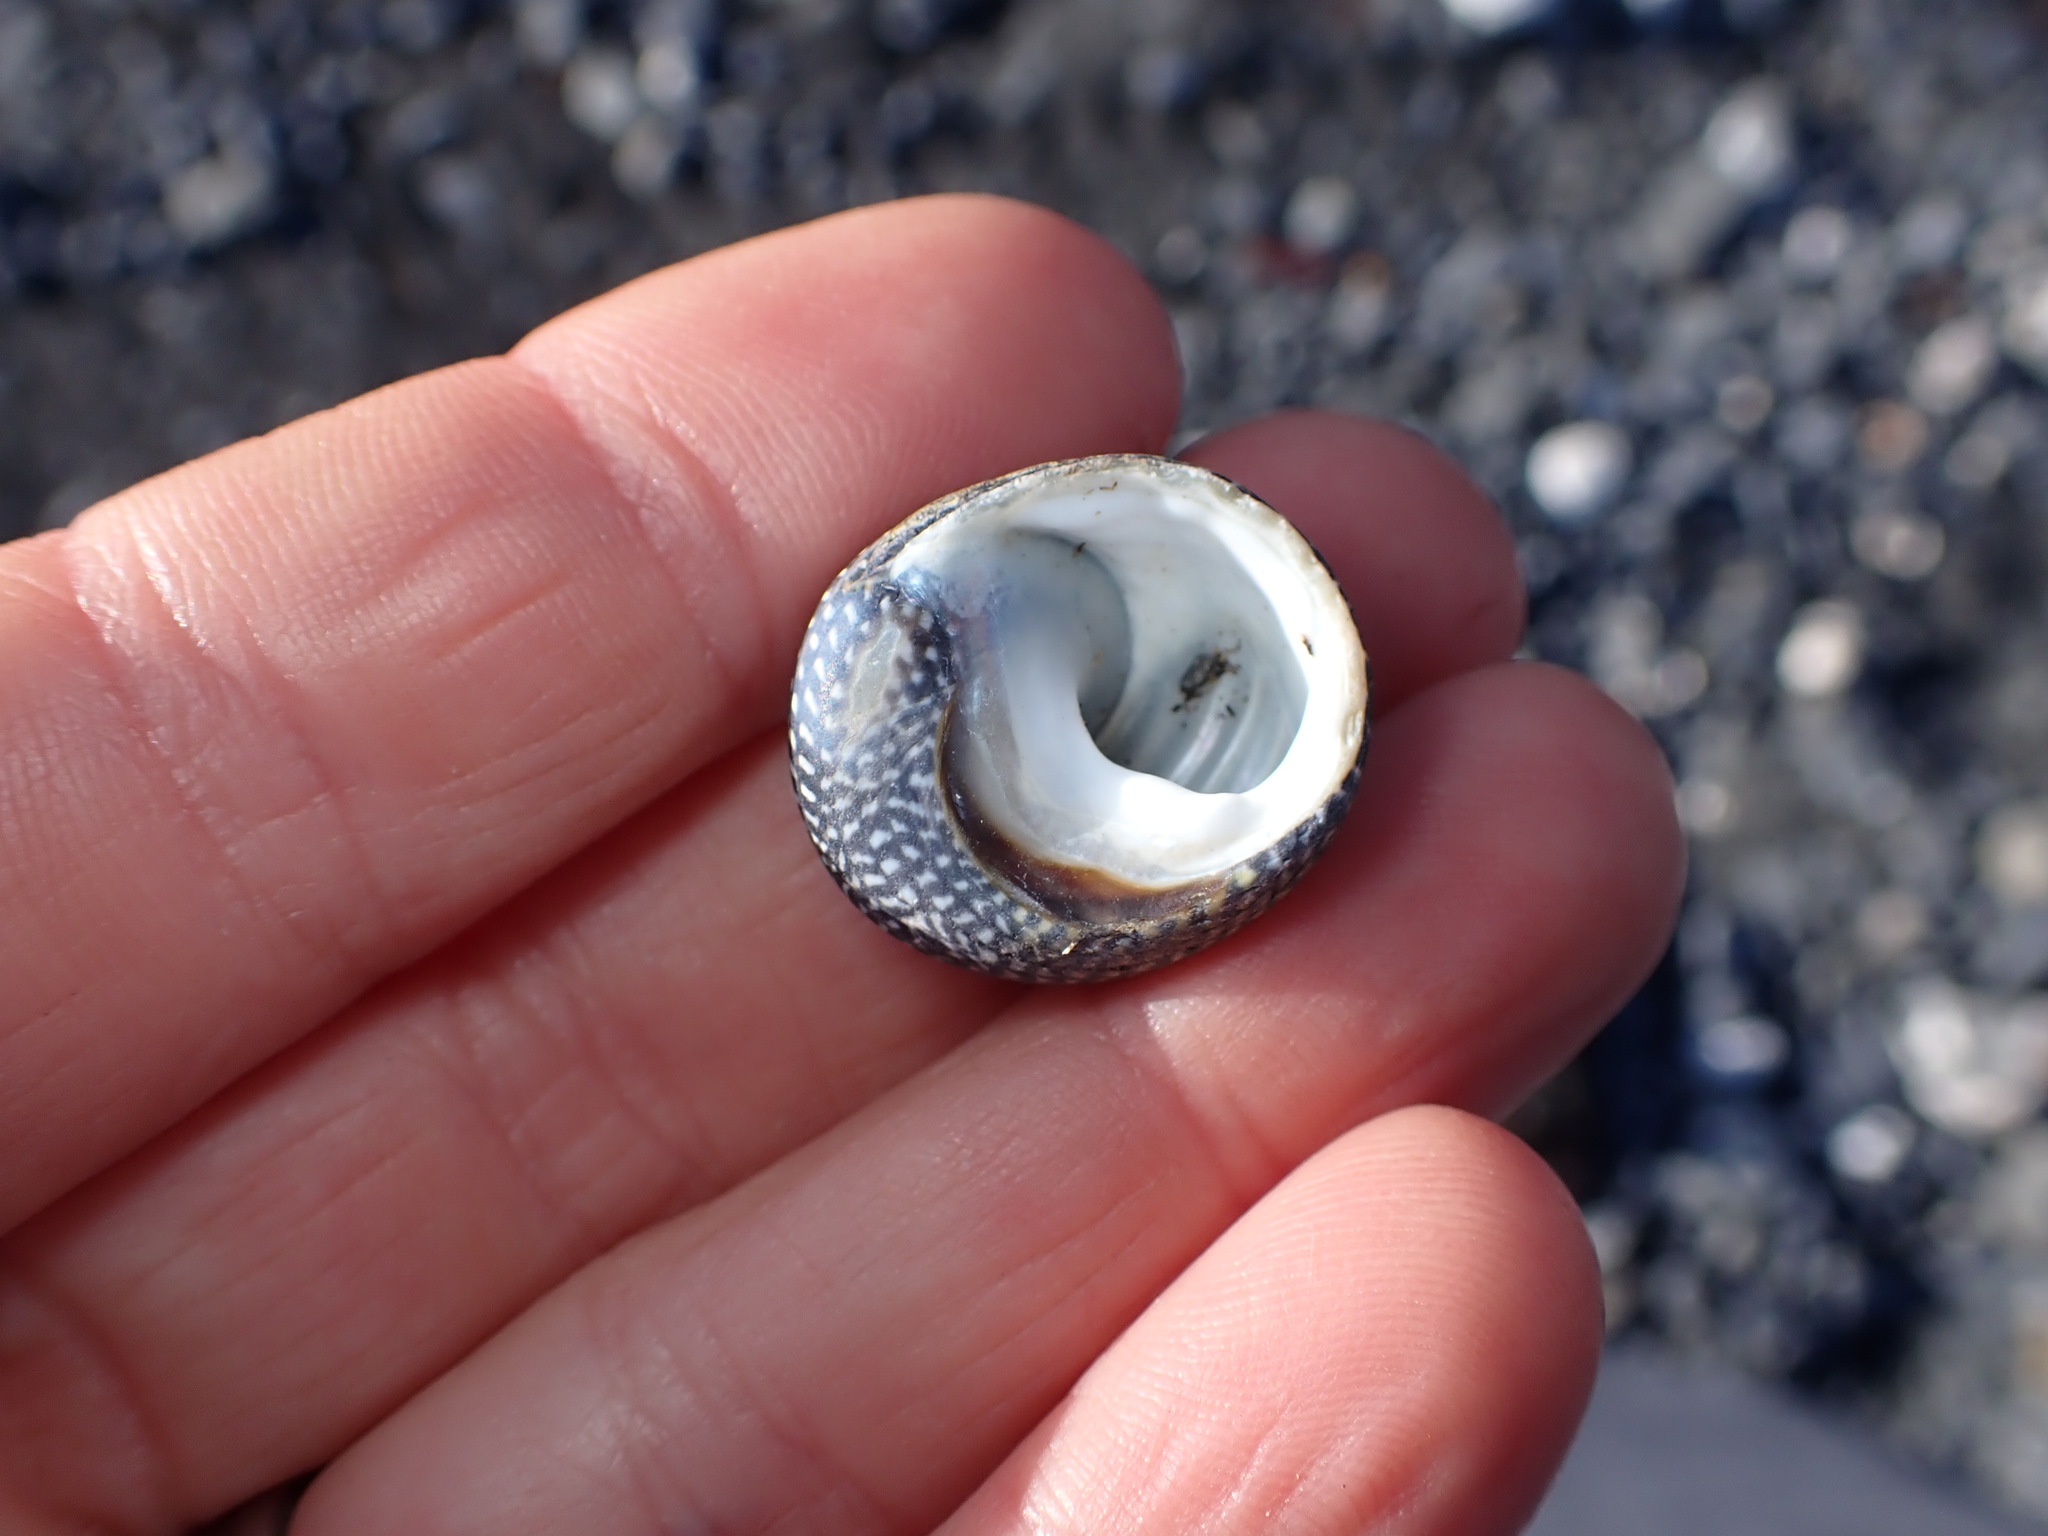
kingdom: Animalia
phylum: Mollusca
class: Gastropoda
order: Trochida
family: Trochidae
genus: Diloma
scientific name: Diloma aethiops
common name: Scorched monodont
